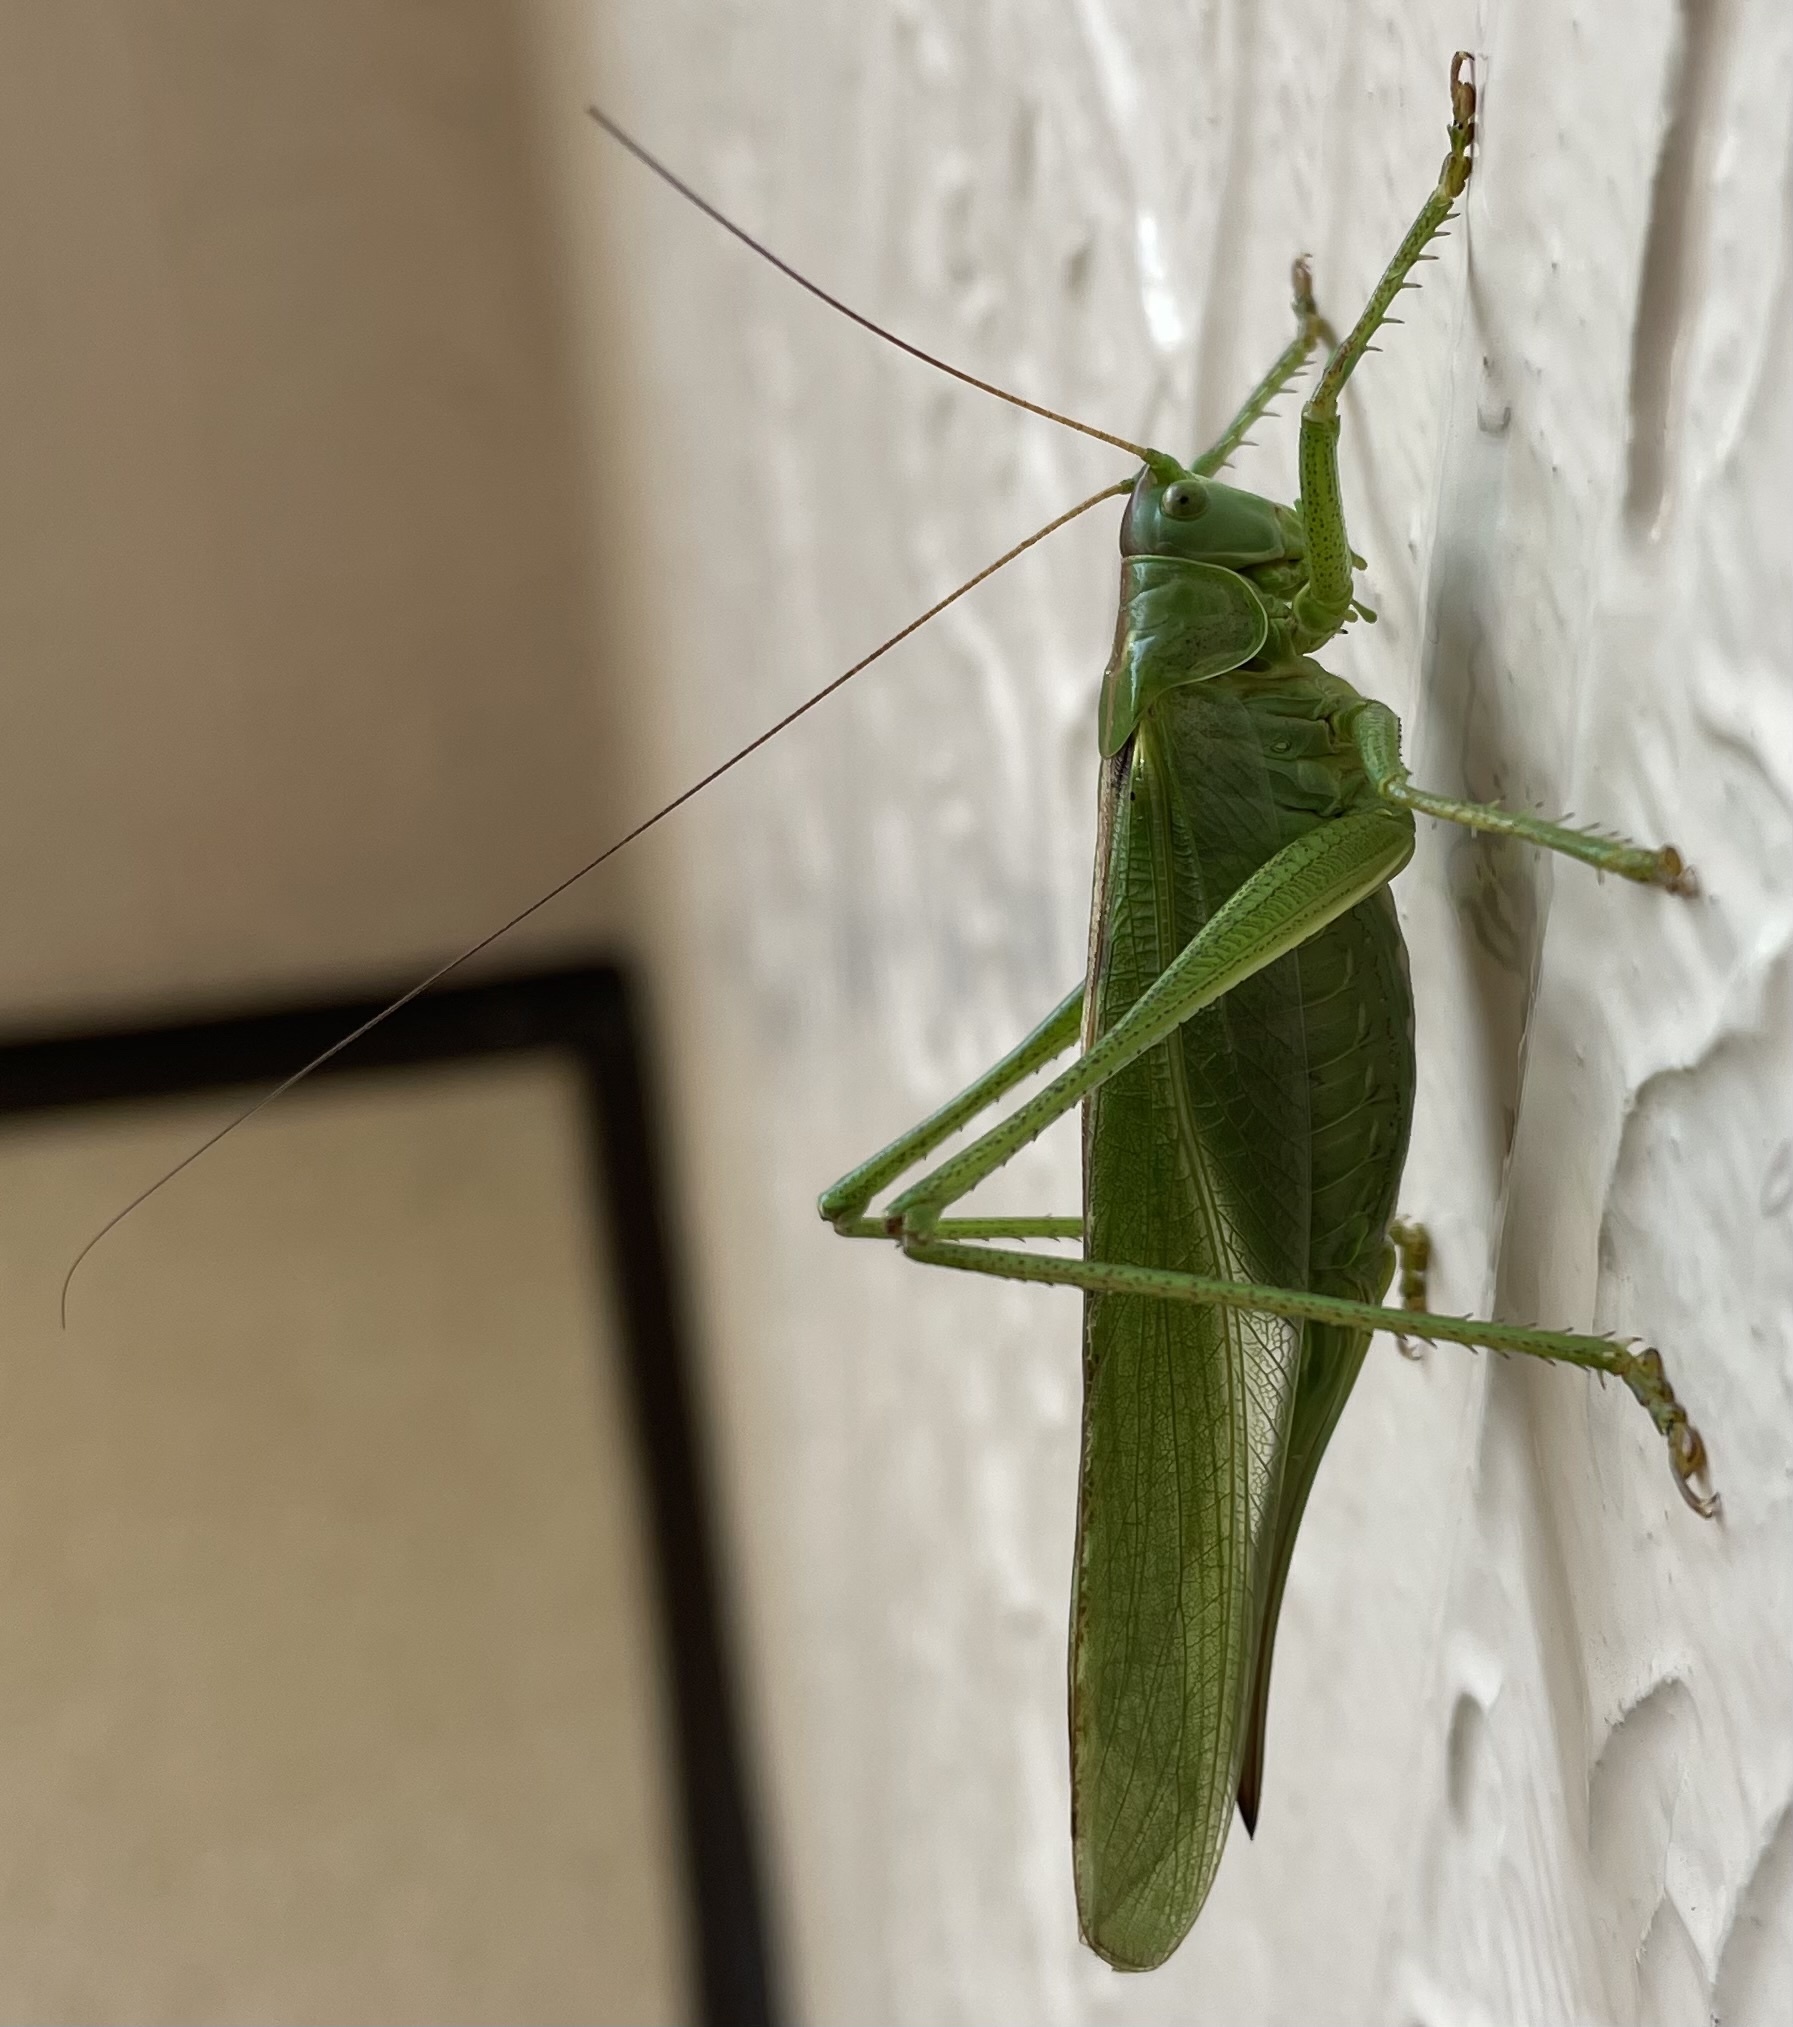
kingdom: Animalia
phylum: Arthropoda
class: Insecta
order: Orthoptera
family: Tettigoniidae
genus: Tettigonia
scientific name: Tettigonia viridissima
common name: Great green bush-cricket
